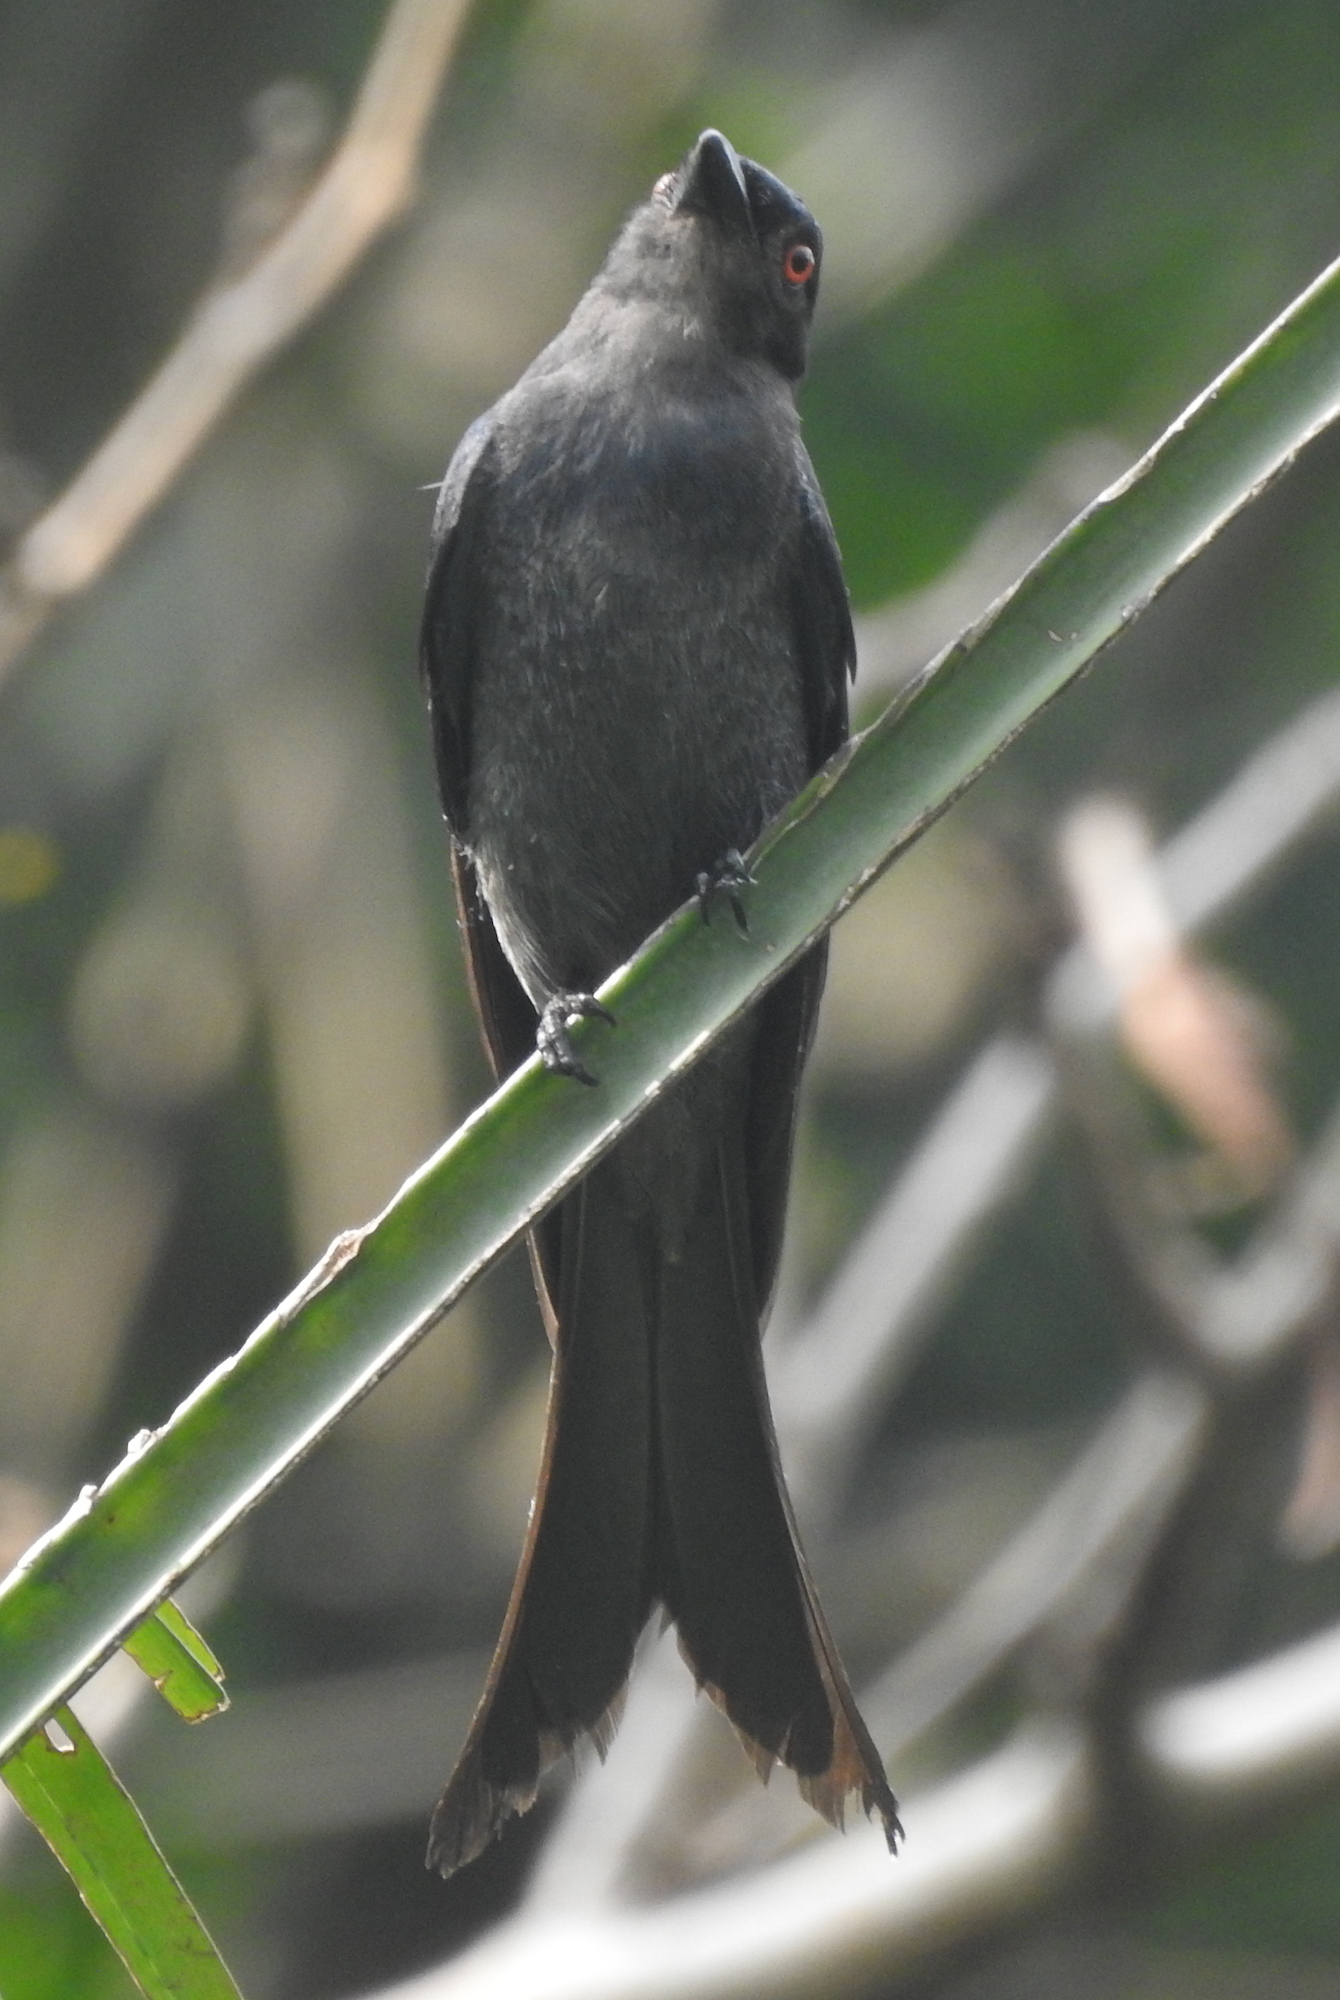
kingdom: Animalia
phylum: Chordata
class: Aves
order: Passeriformes
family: Dicruridae
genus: Dicrurus
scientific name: Dicrurus leucophaeus
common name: Ashy drongo
